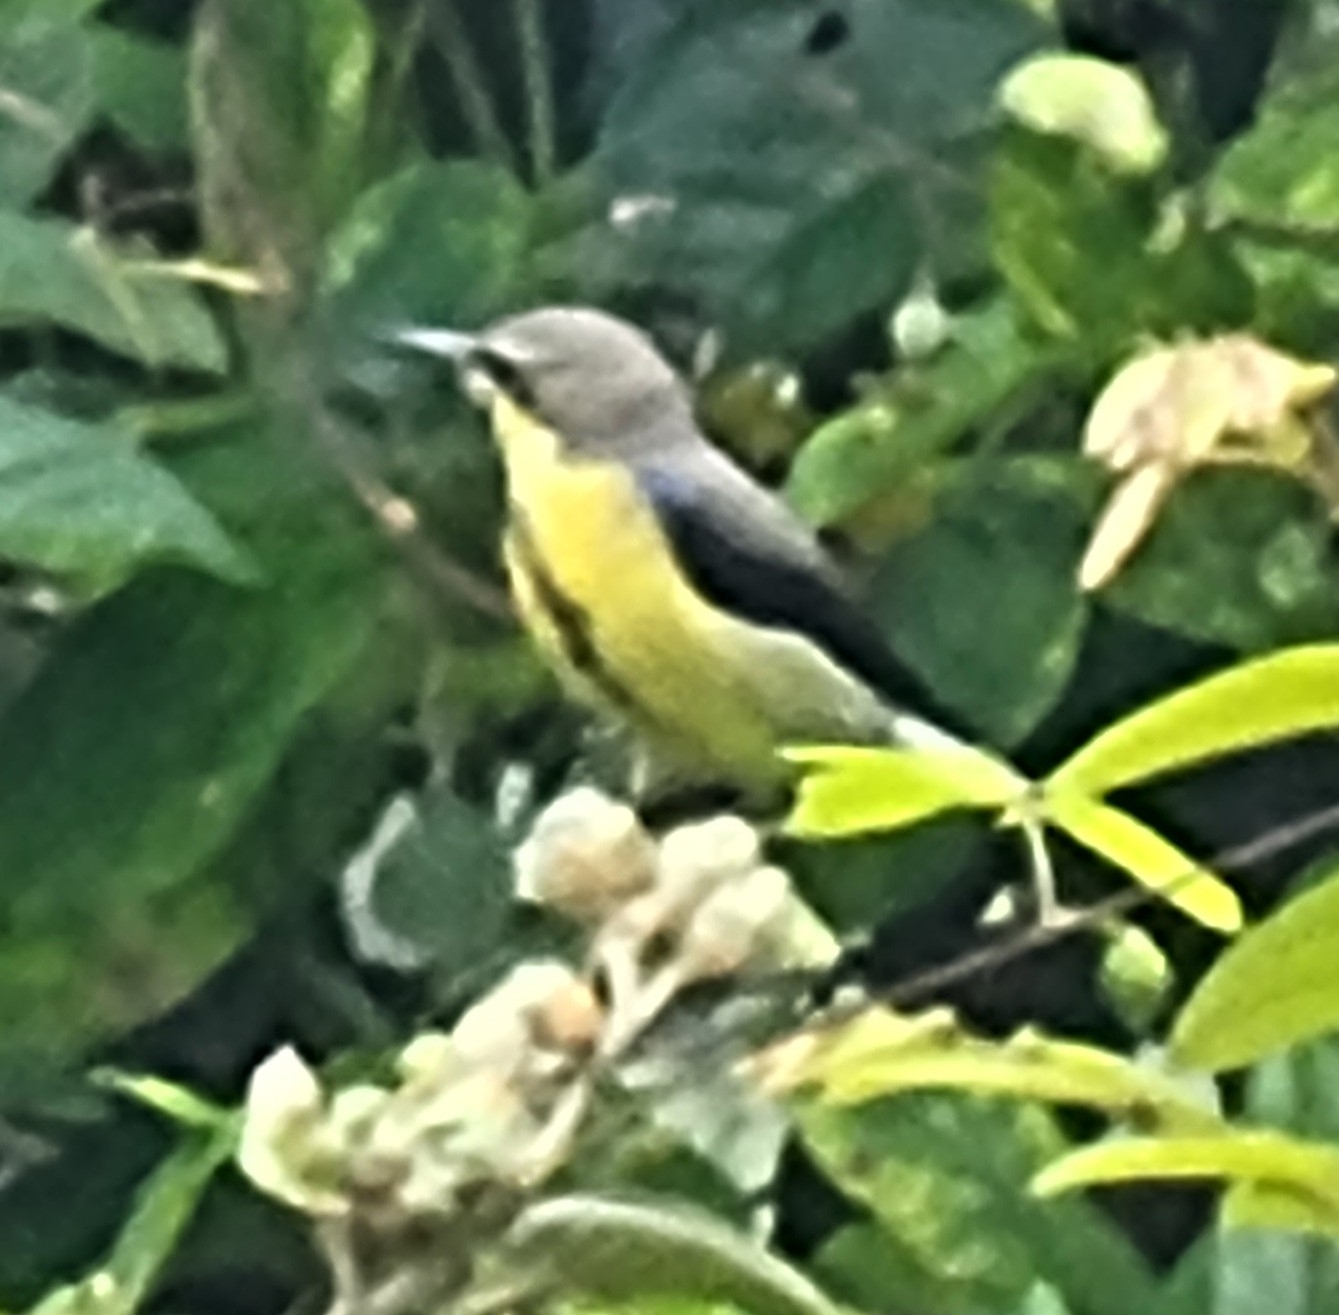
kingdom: Animalia
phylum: Chordata
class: Aves
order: Passeriformes
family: Nectariniidae
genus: Cinnyris
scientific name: Cinnyris asiaticus
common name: Purple sunbird
